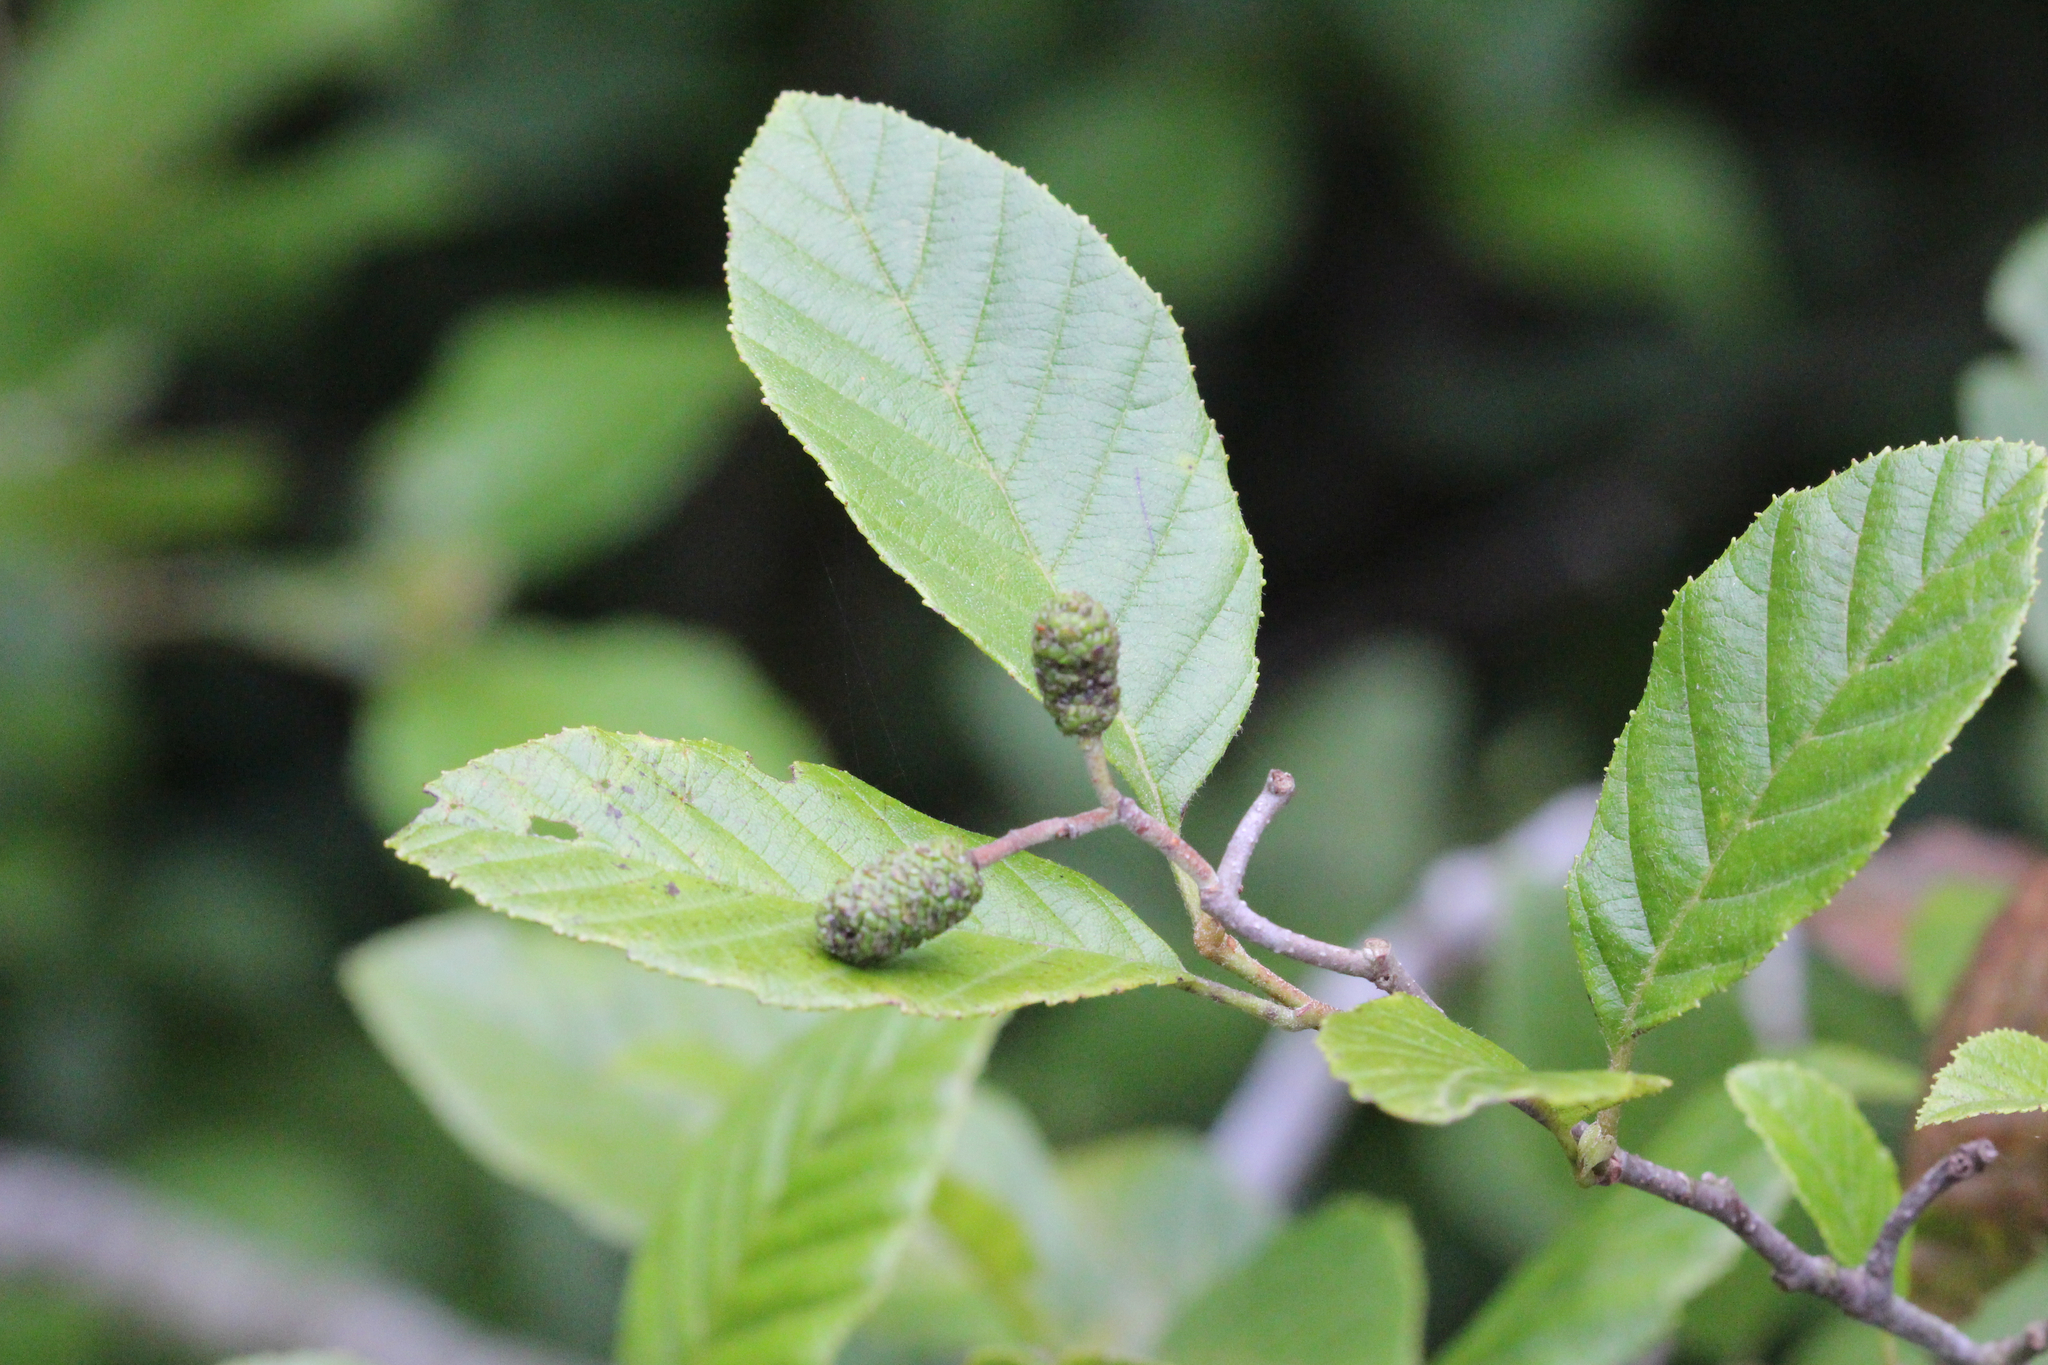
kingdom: Plantae
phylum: Tracheophyta
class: Magnoliopsida
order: Fagales
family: Betulaceae
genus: Alnus
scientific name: Alnus serrulata
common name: Hazel alder
